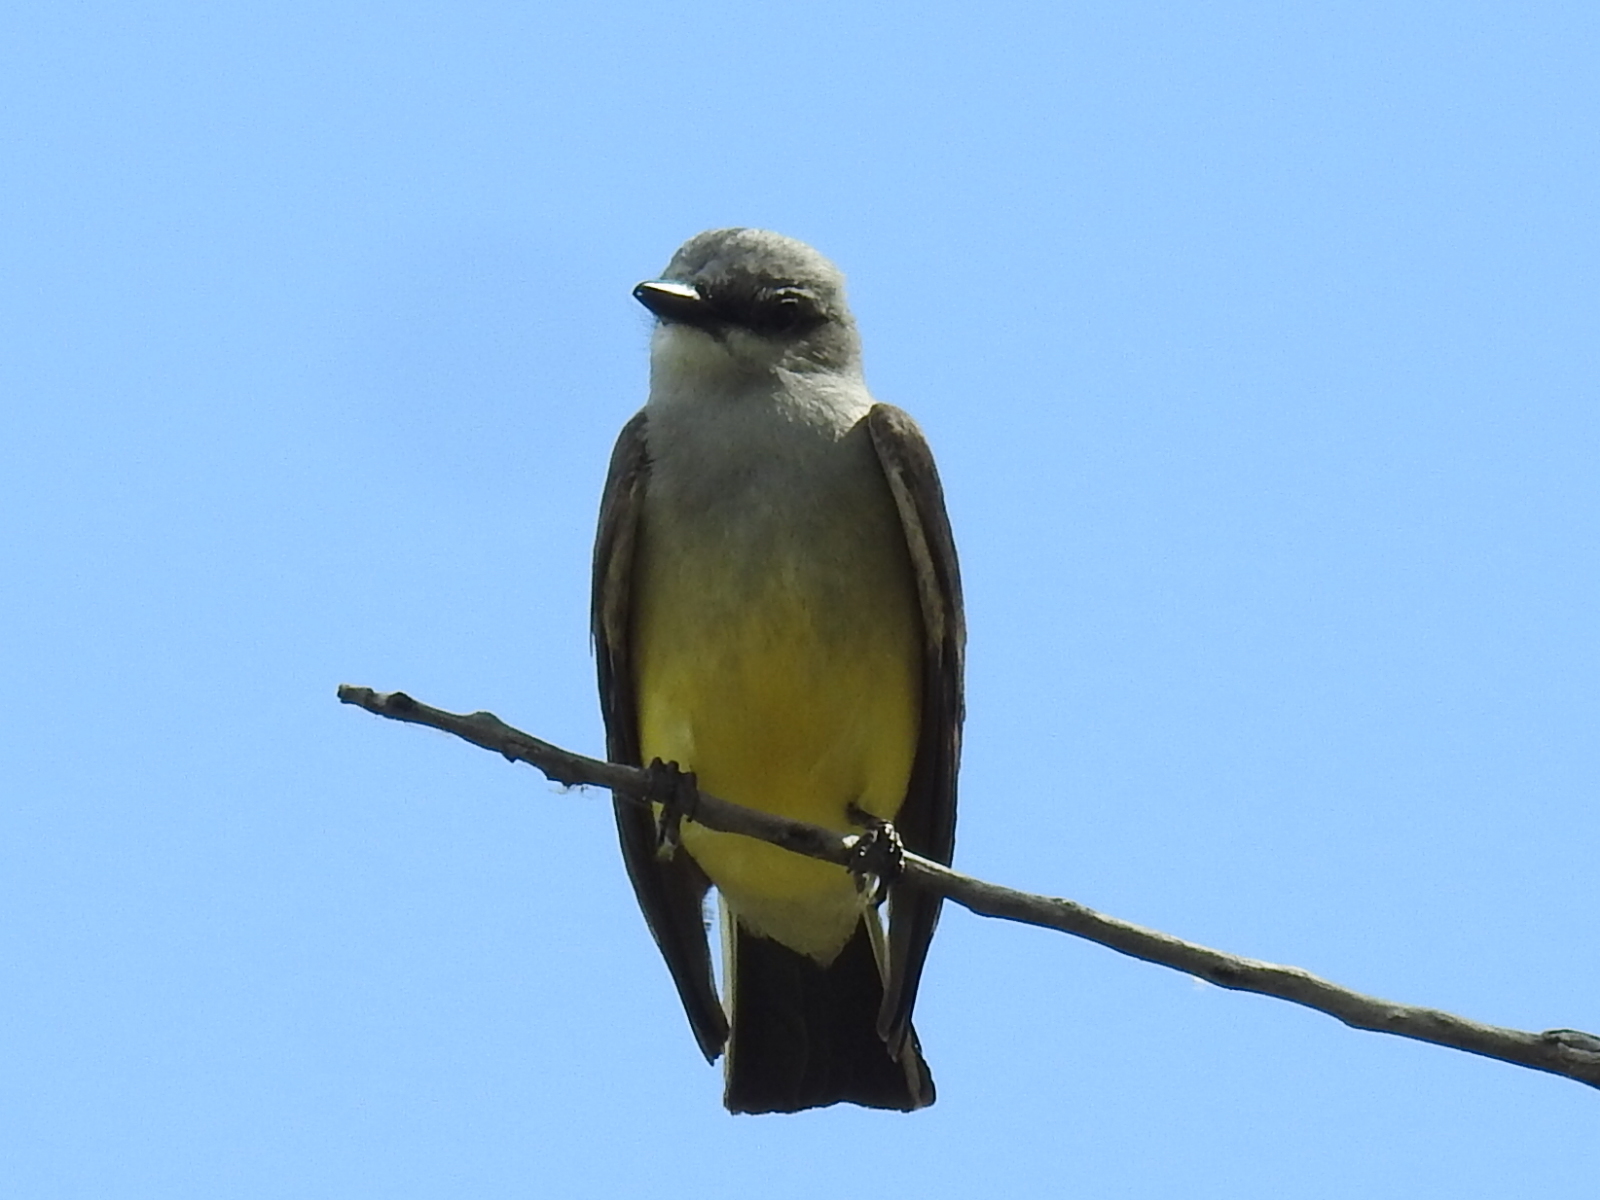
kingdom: Animalia
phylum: Chordata
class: Aves
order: Passeriformes
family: Tyrannidae
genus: Tyrannus
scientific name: Tyrannus verticalis
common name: Western kingbird
